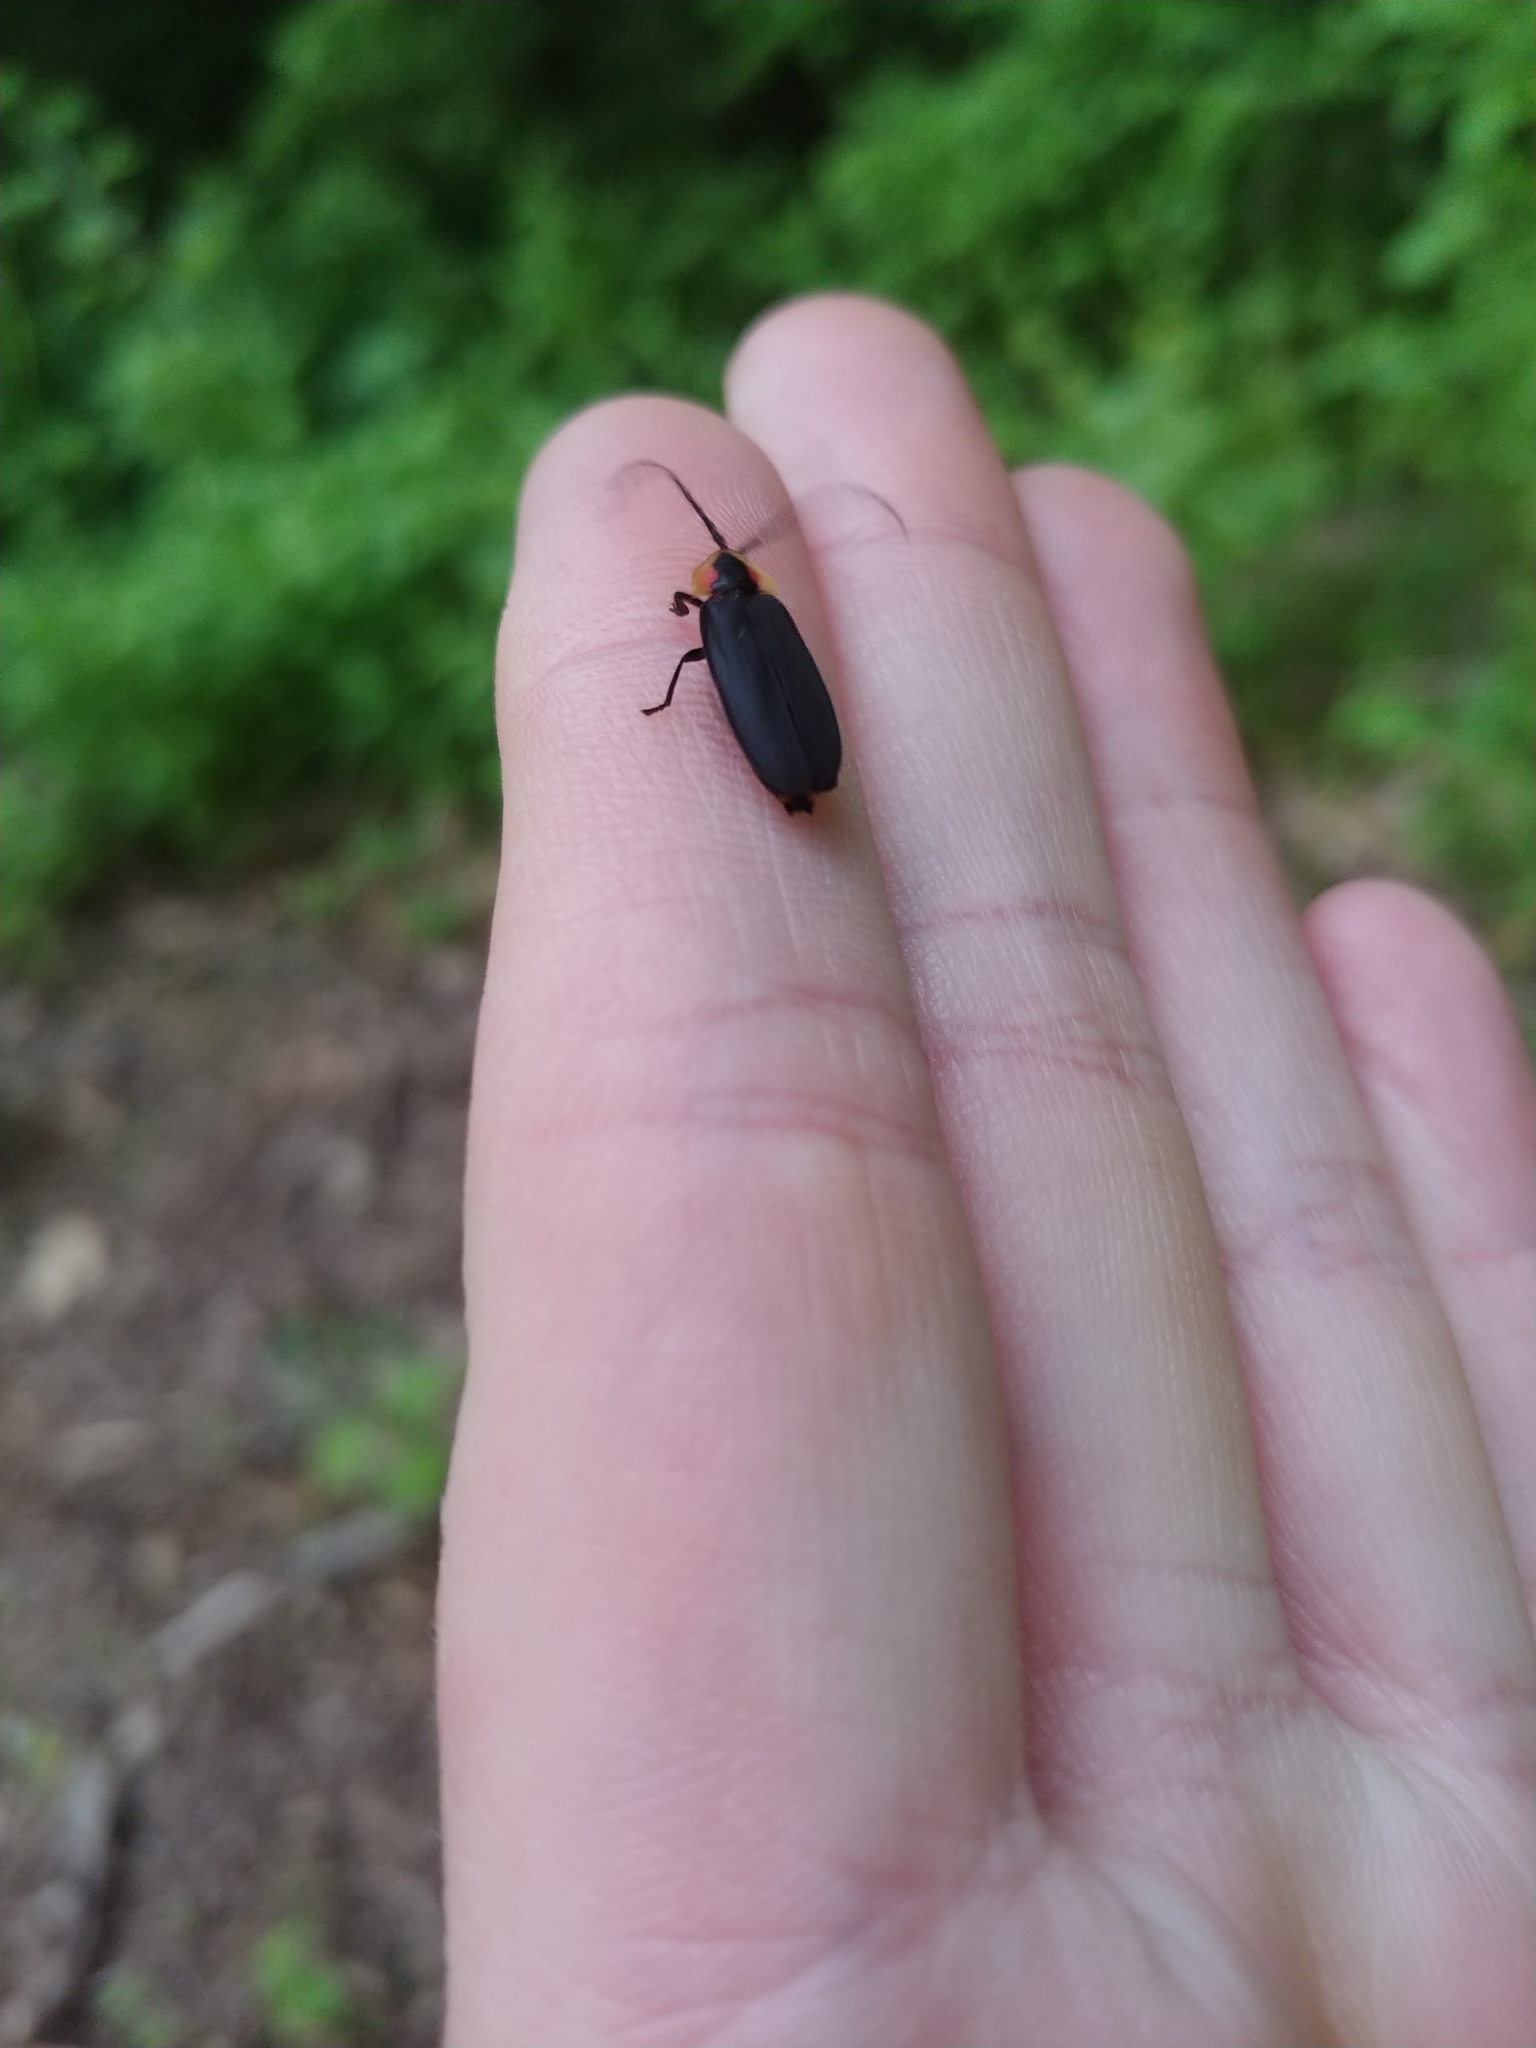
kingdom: Animalia
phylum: Arthropoda
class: Insecta
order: Coleoptera
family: Lampyridae
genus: Lucidota
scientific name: Lucidota atra
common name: Black firefly
